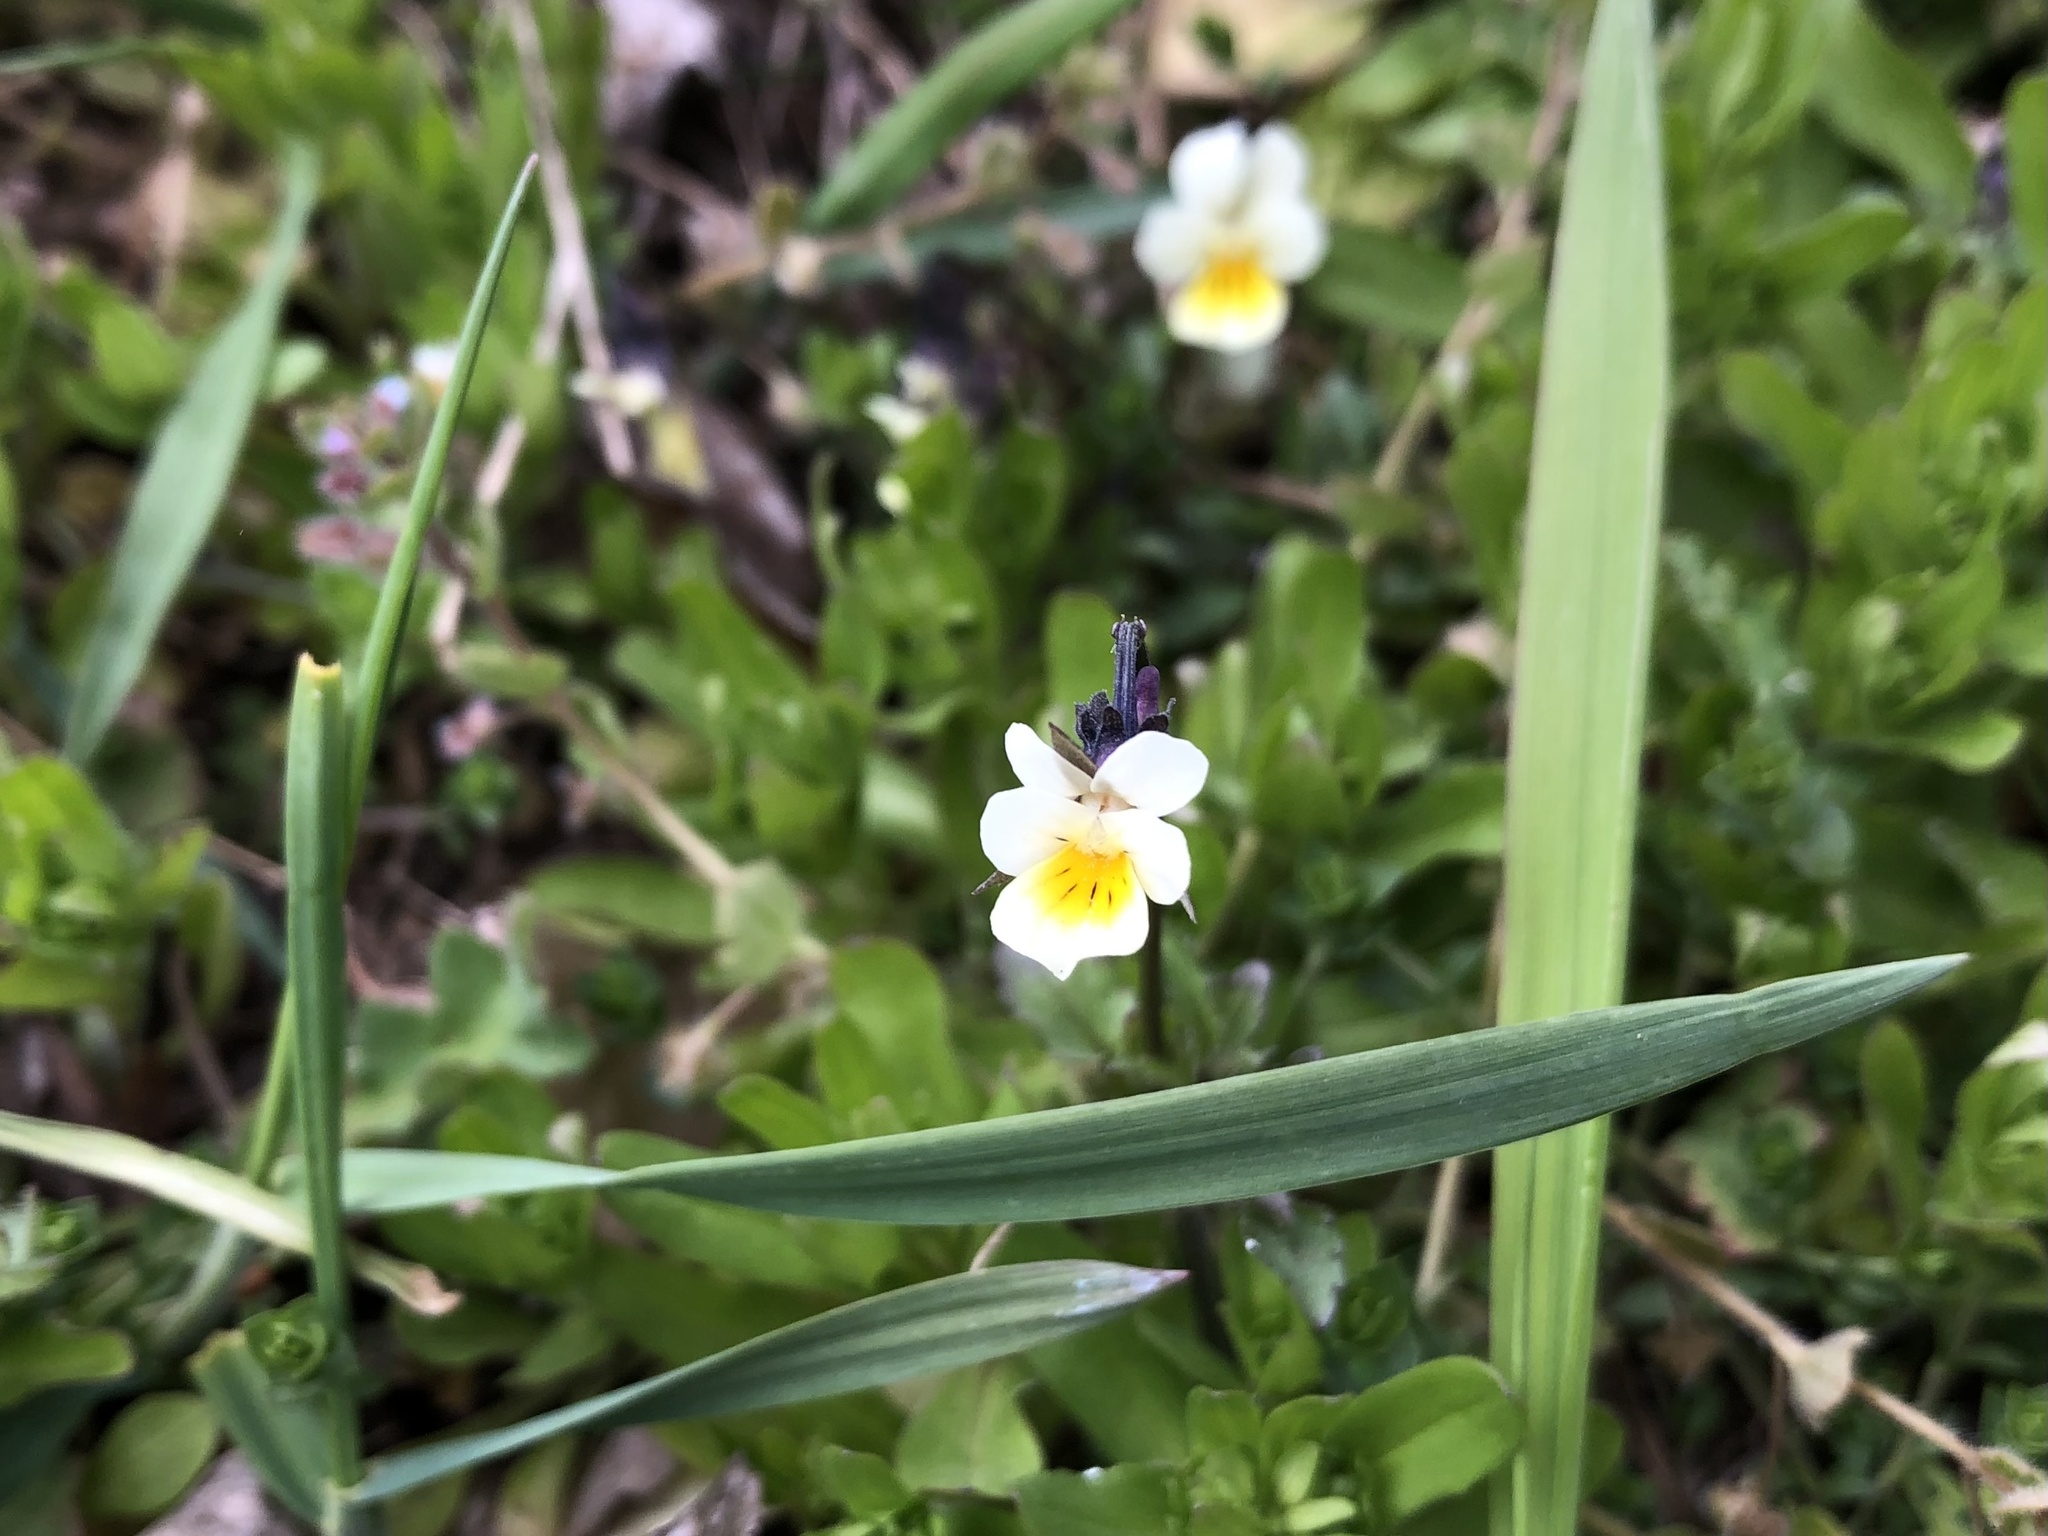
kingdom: Plantae
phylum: Tracheophyta
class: Magnoliopsida
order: Malpighiales
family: Violaceae
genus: Viola
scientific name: Viola arvensis
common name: Field pansy
